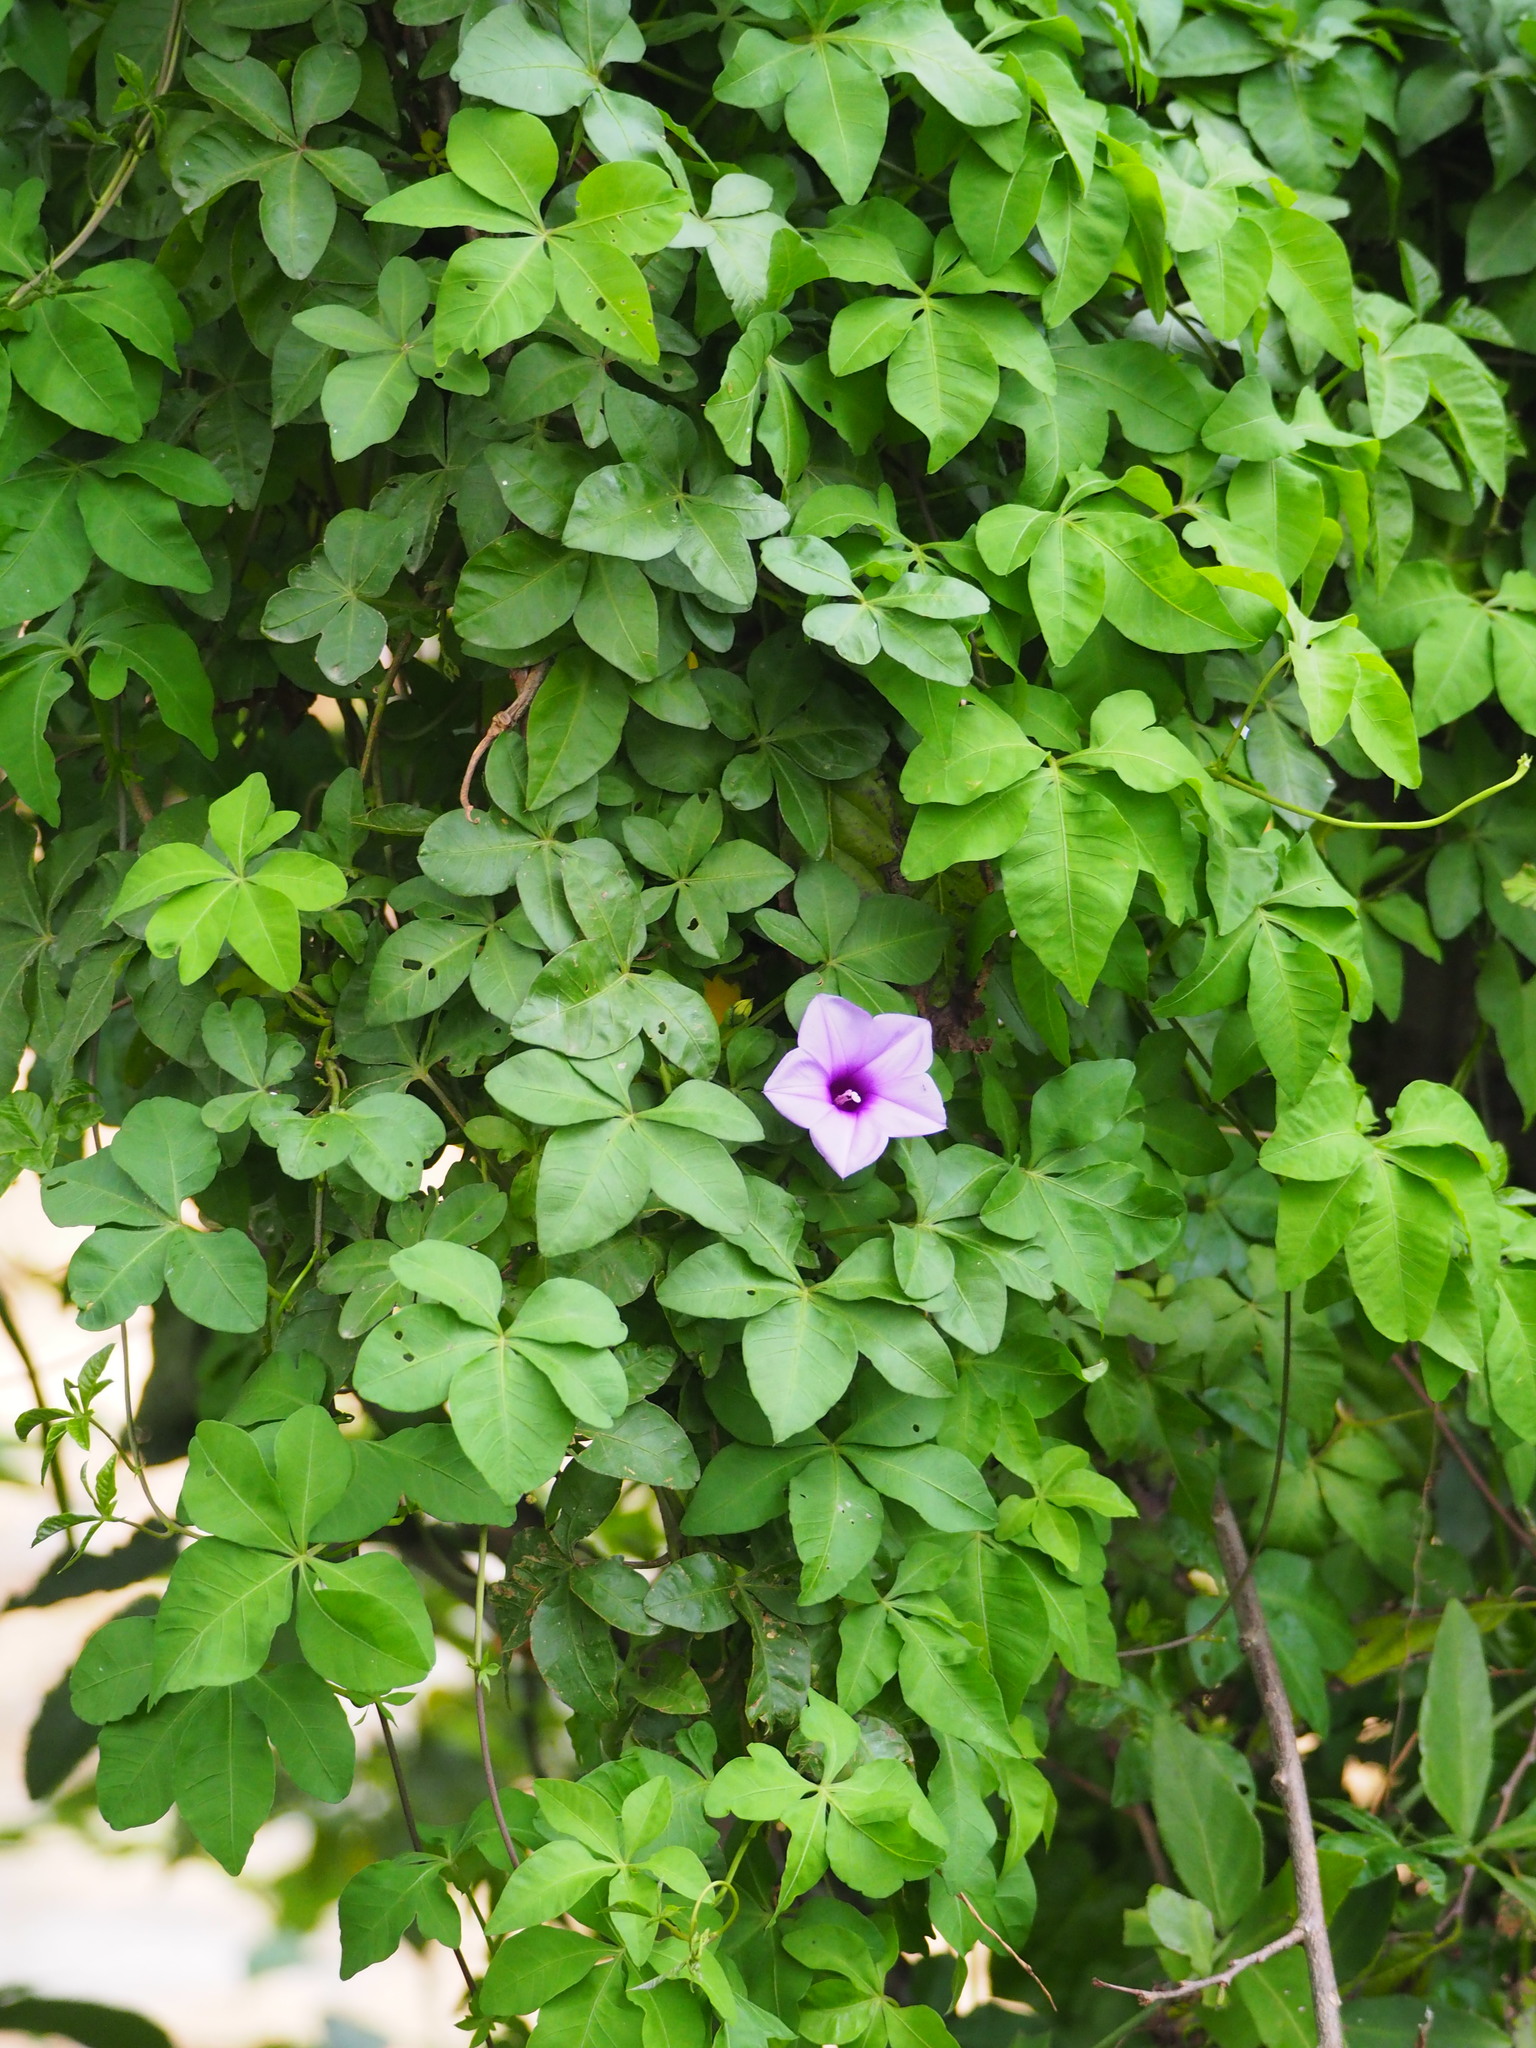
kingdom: Plantae
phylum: Tracheophyta
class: Magnoliopsida
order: Solanales
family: Convolvulaceae
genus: Ipomoea
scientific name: Ipomoea cairica
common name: Mile a minute vine
